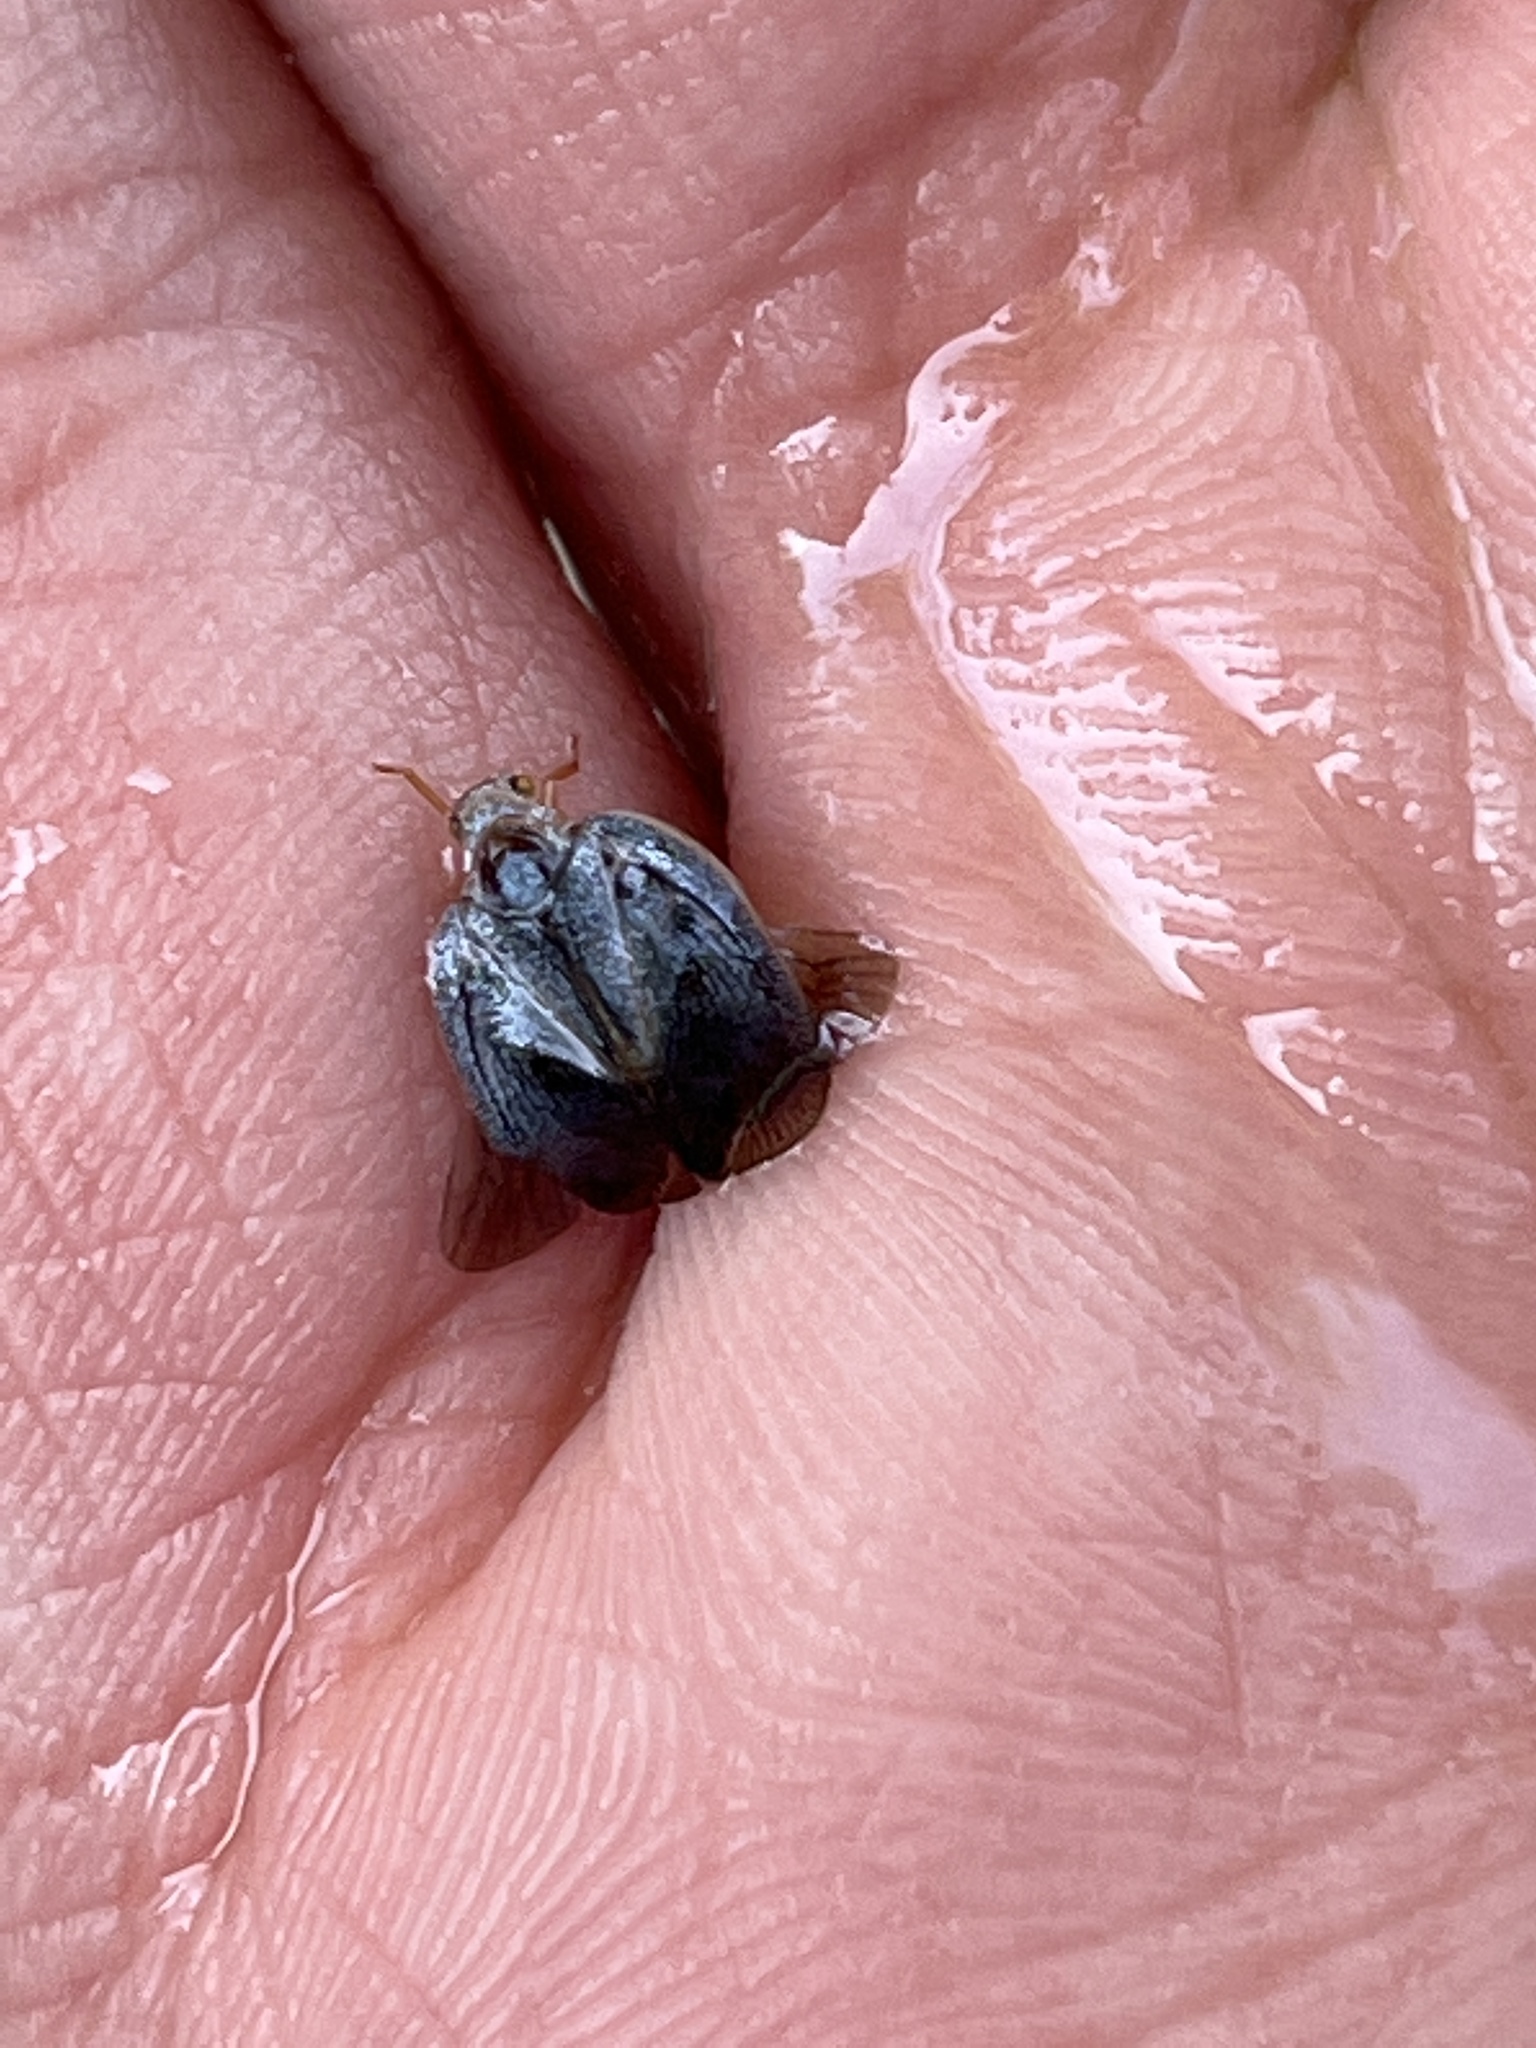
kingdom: Animalia
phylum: Arthropoda
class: Insecta
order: Hemiptera
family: Flatidae
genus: Metcalfa
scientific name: Metcalfa pruinosa
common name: Citrus flatid planthopper
